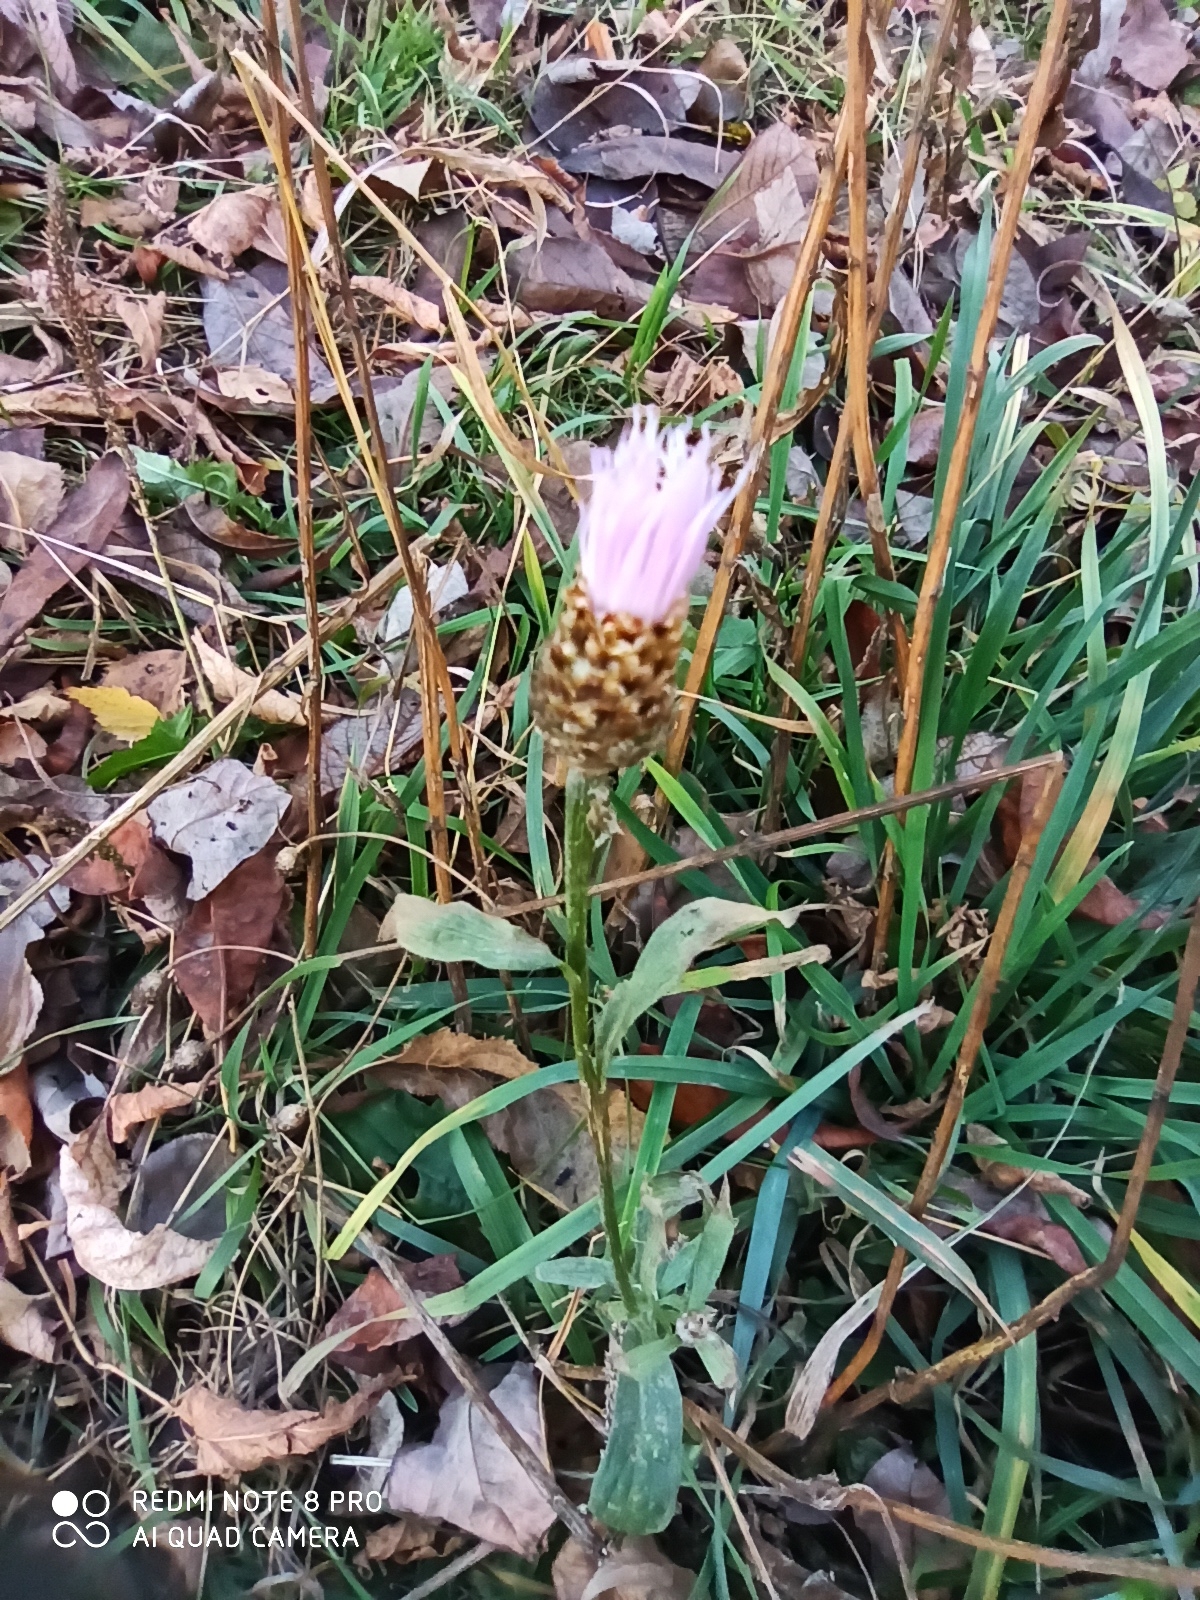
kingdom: Plantae
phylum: Tracheophyta
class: Magnoliopsida
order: Asterales
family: Asteraceae
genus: Centaurea
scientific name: Centaurea jacea
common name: Brown knapweed
